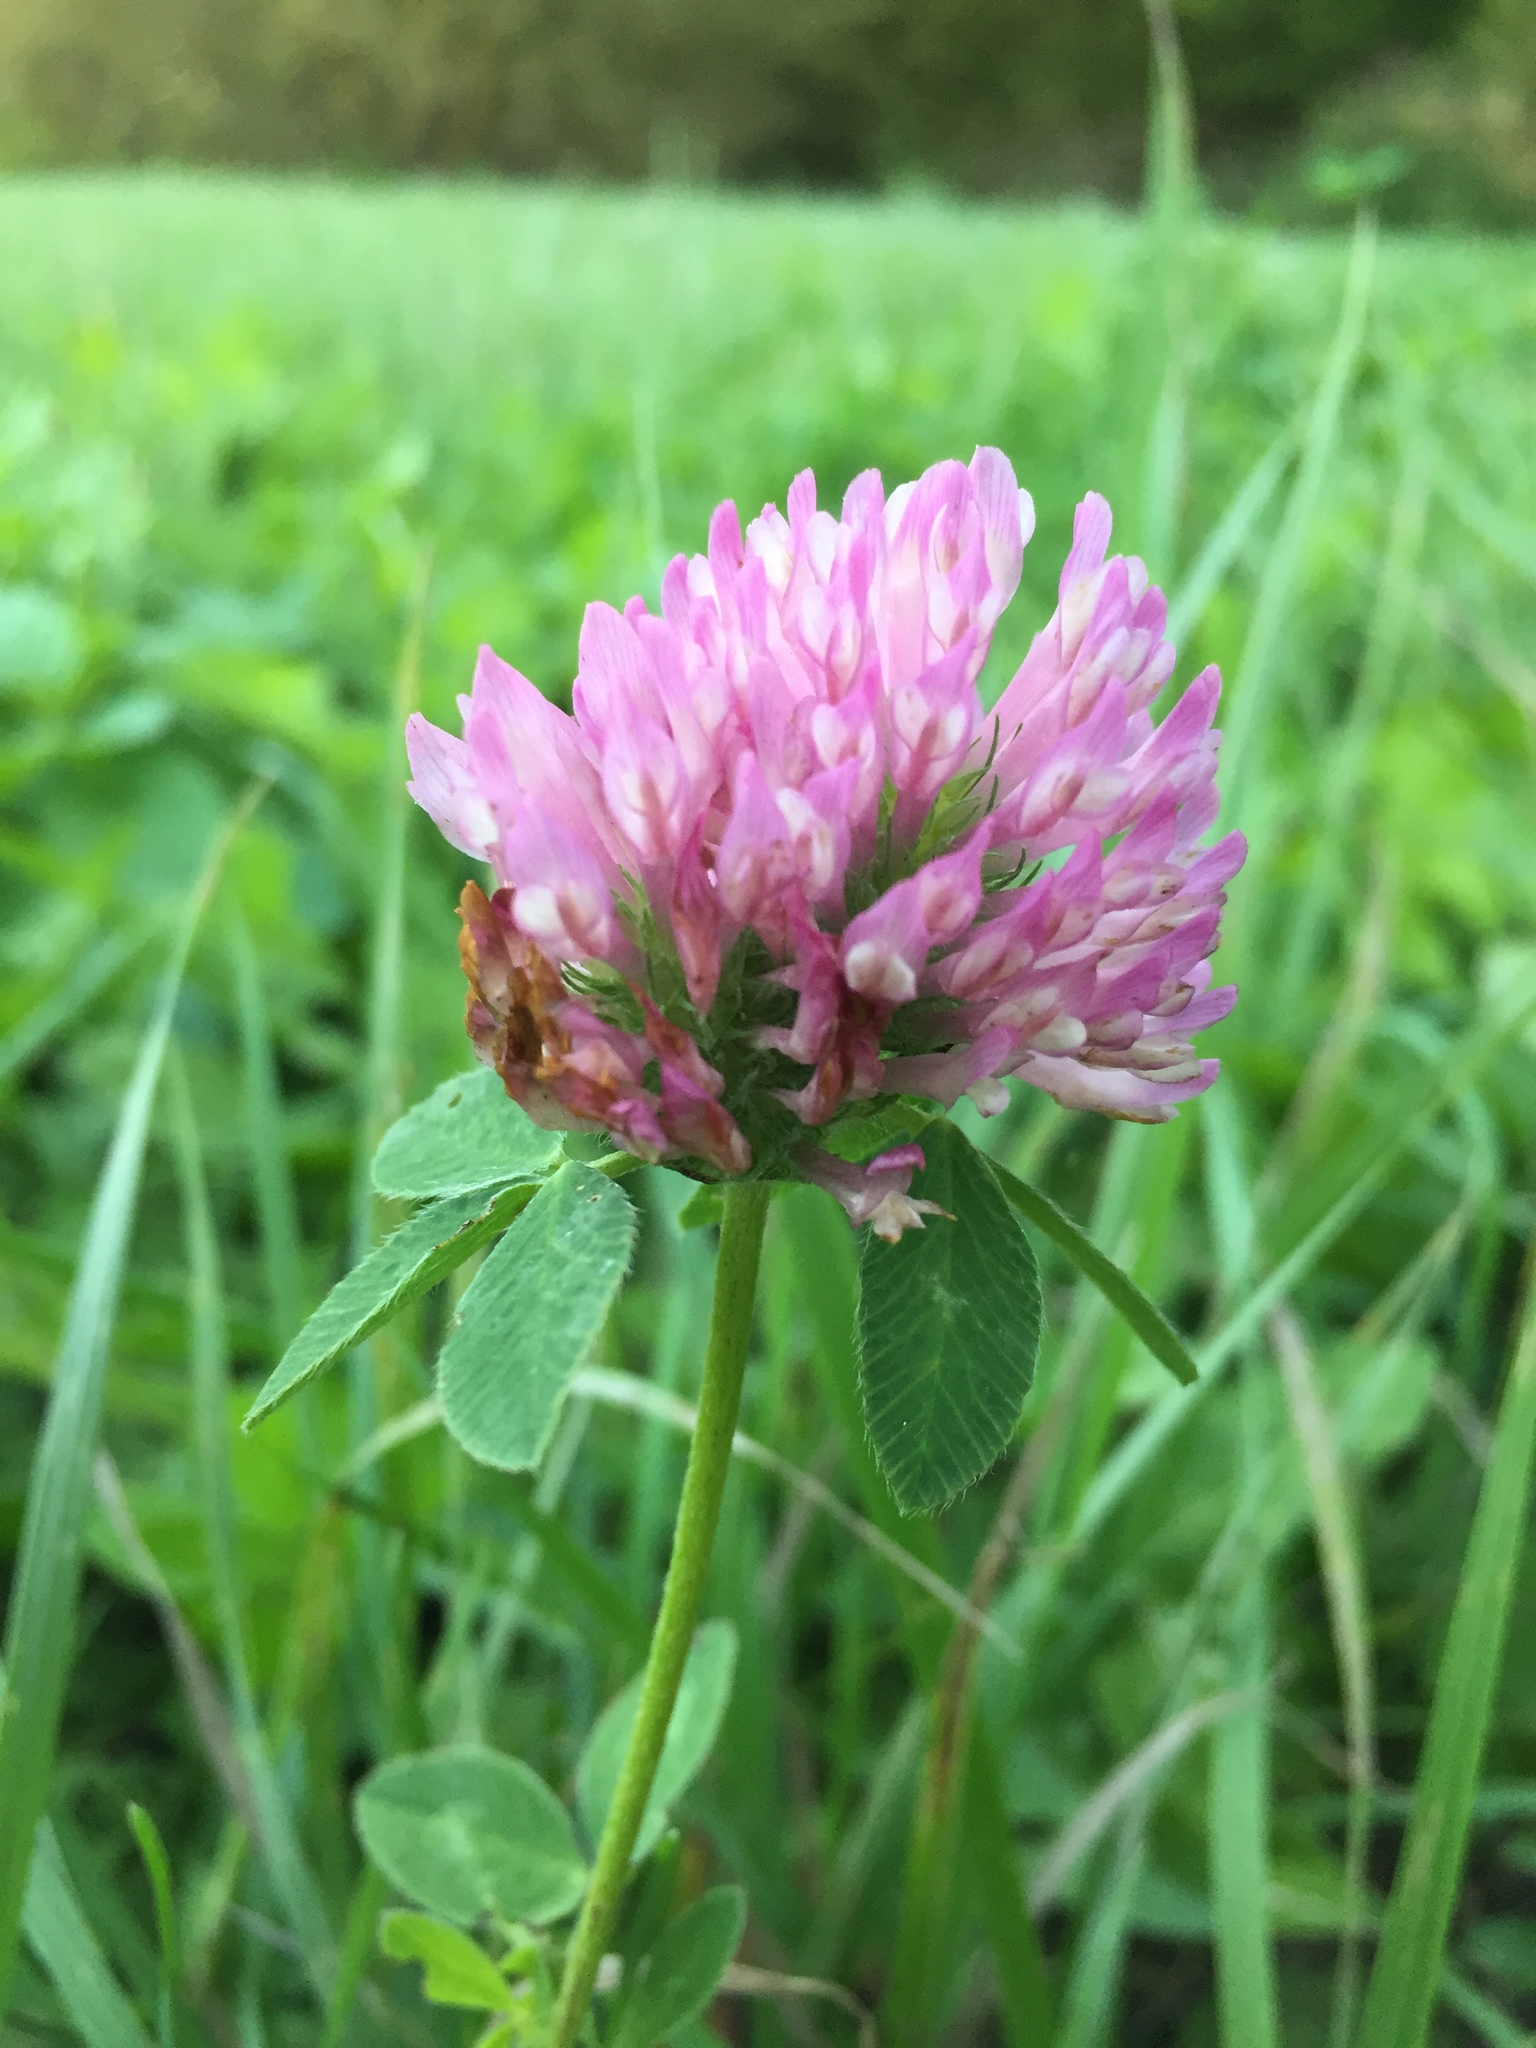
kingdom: Plantae
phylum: Tracheophyta
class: Magnoliopsida
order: Fabales
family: Fabaceae
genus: Trifolium
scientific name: Trifolium pratense
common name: Red clover
